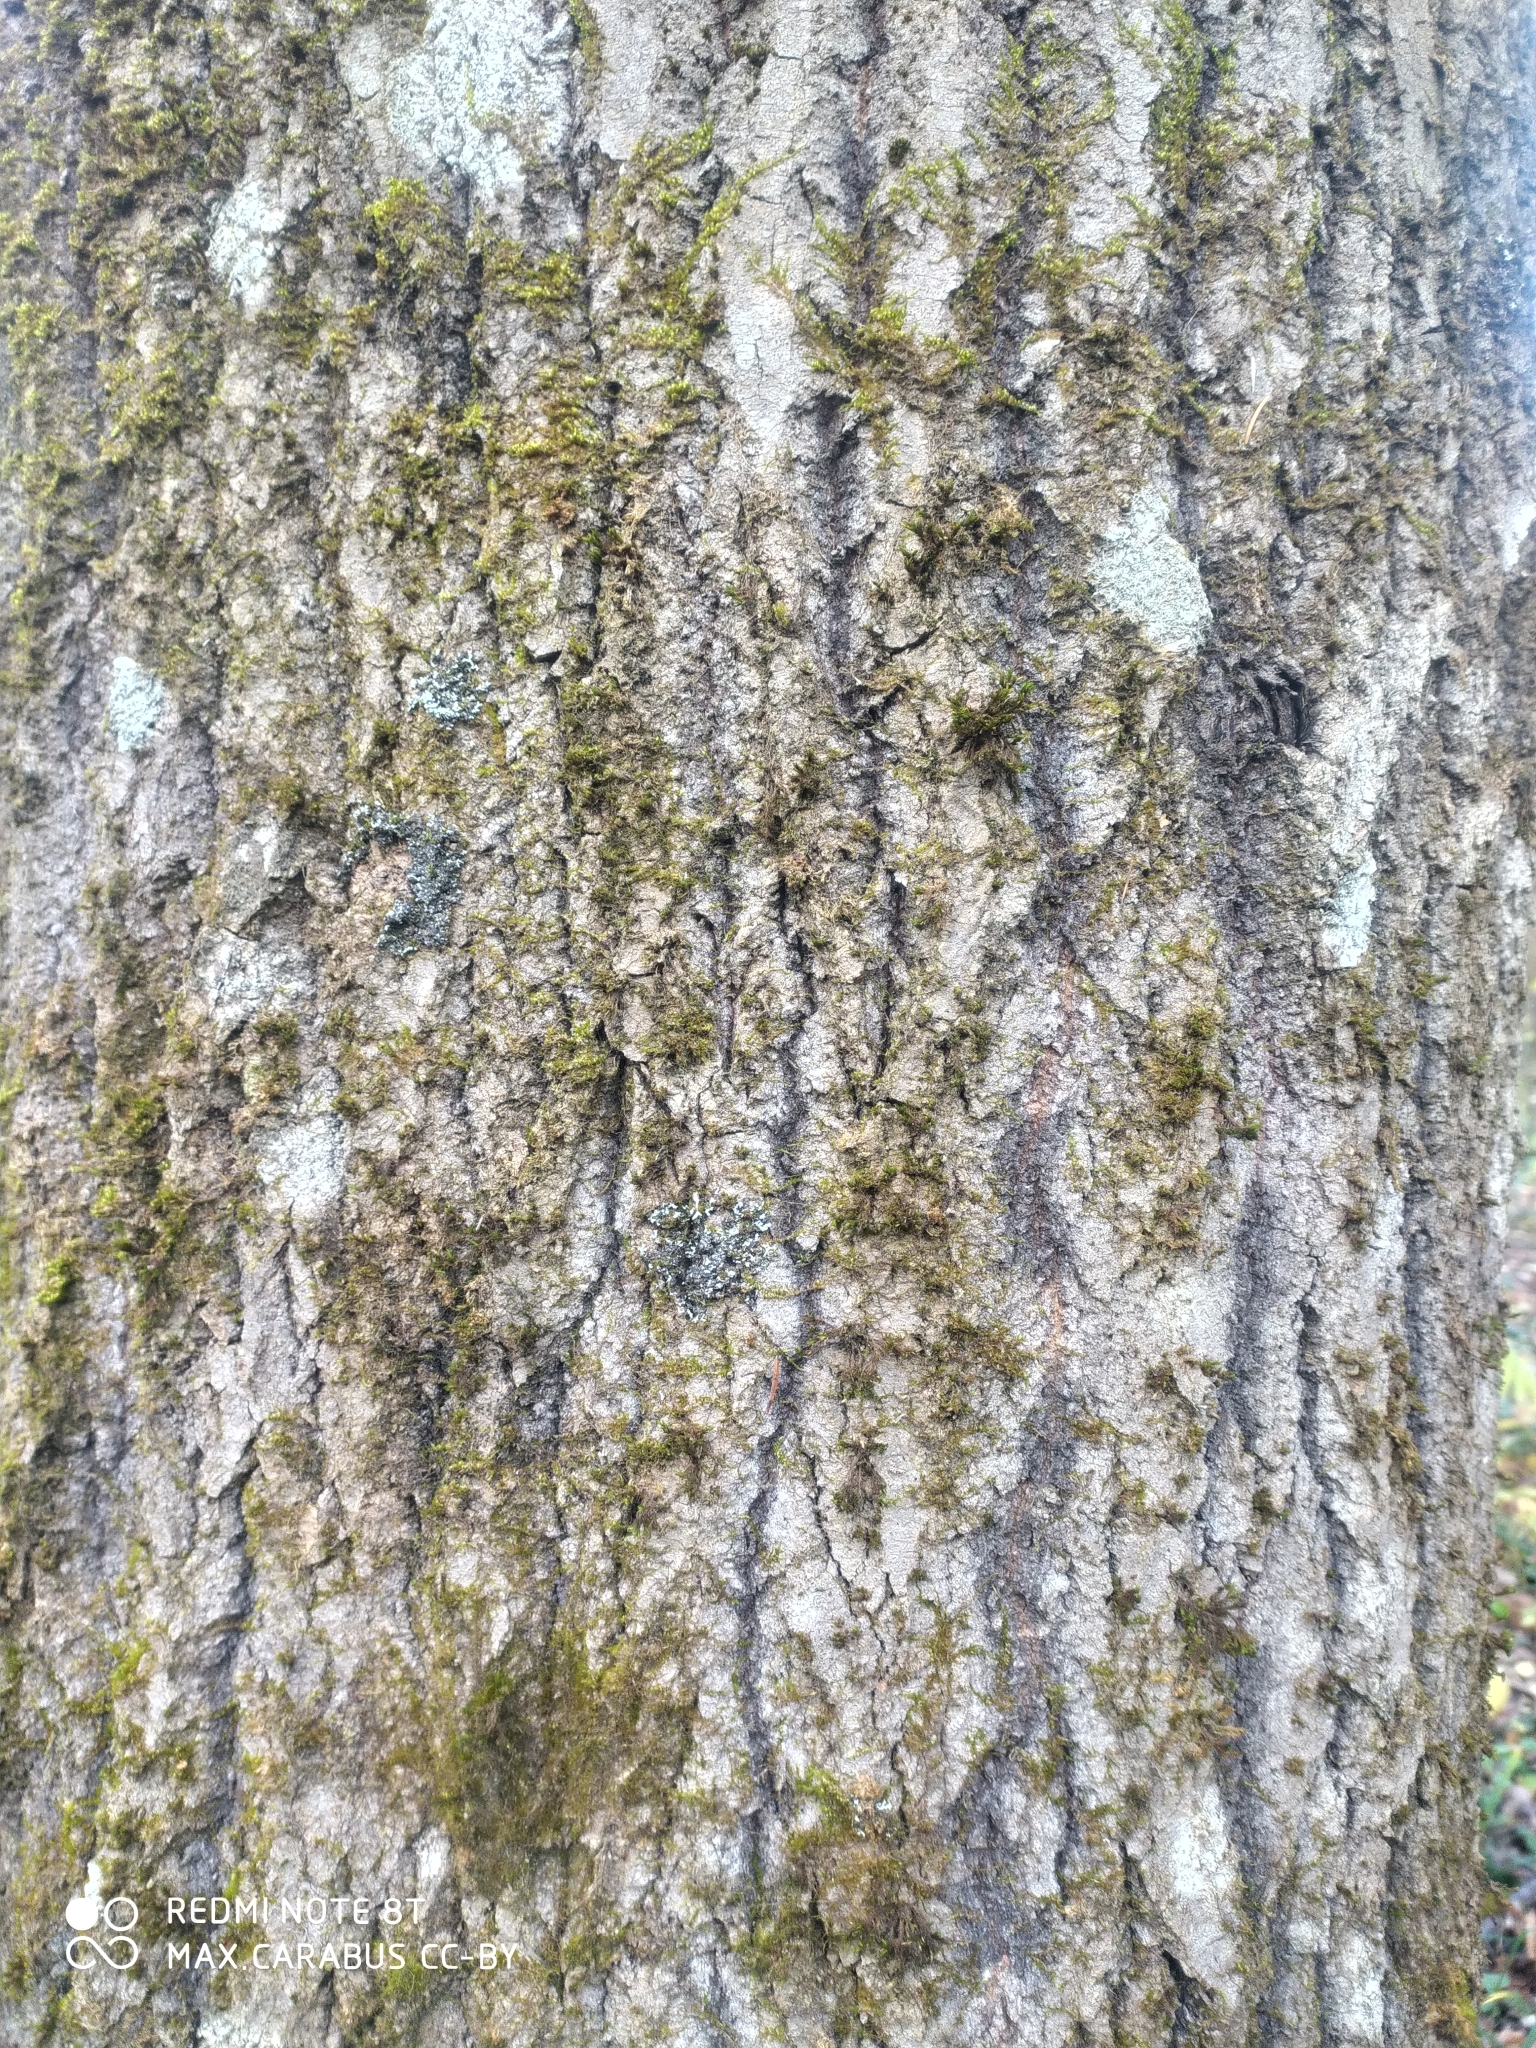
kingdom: Plantae
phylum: Tracheophyta
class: Magnoliopsida
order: Malpighiales
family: Salicaceae
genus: Populus
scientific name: Populus tremula
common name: European aspen
